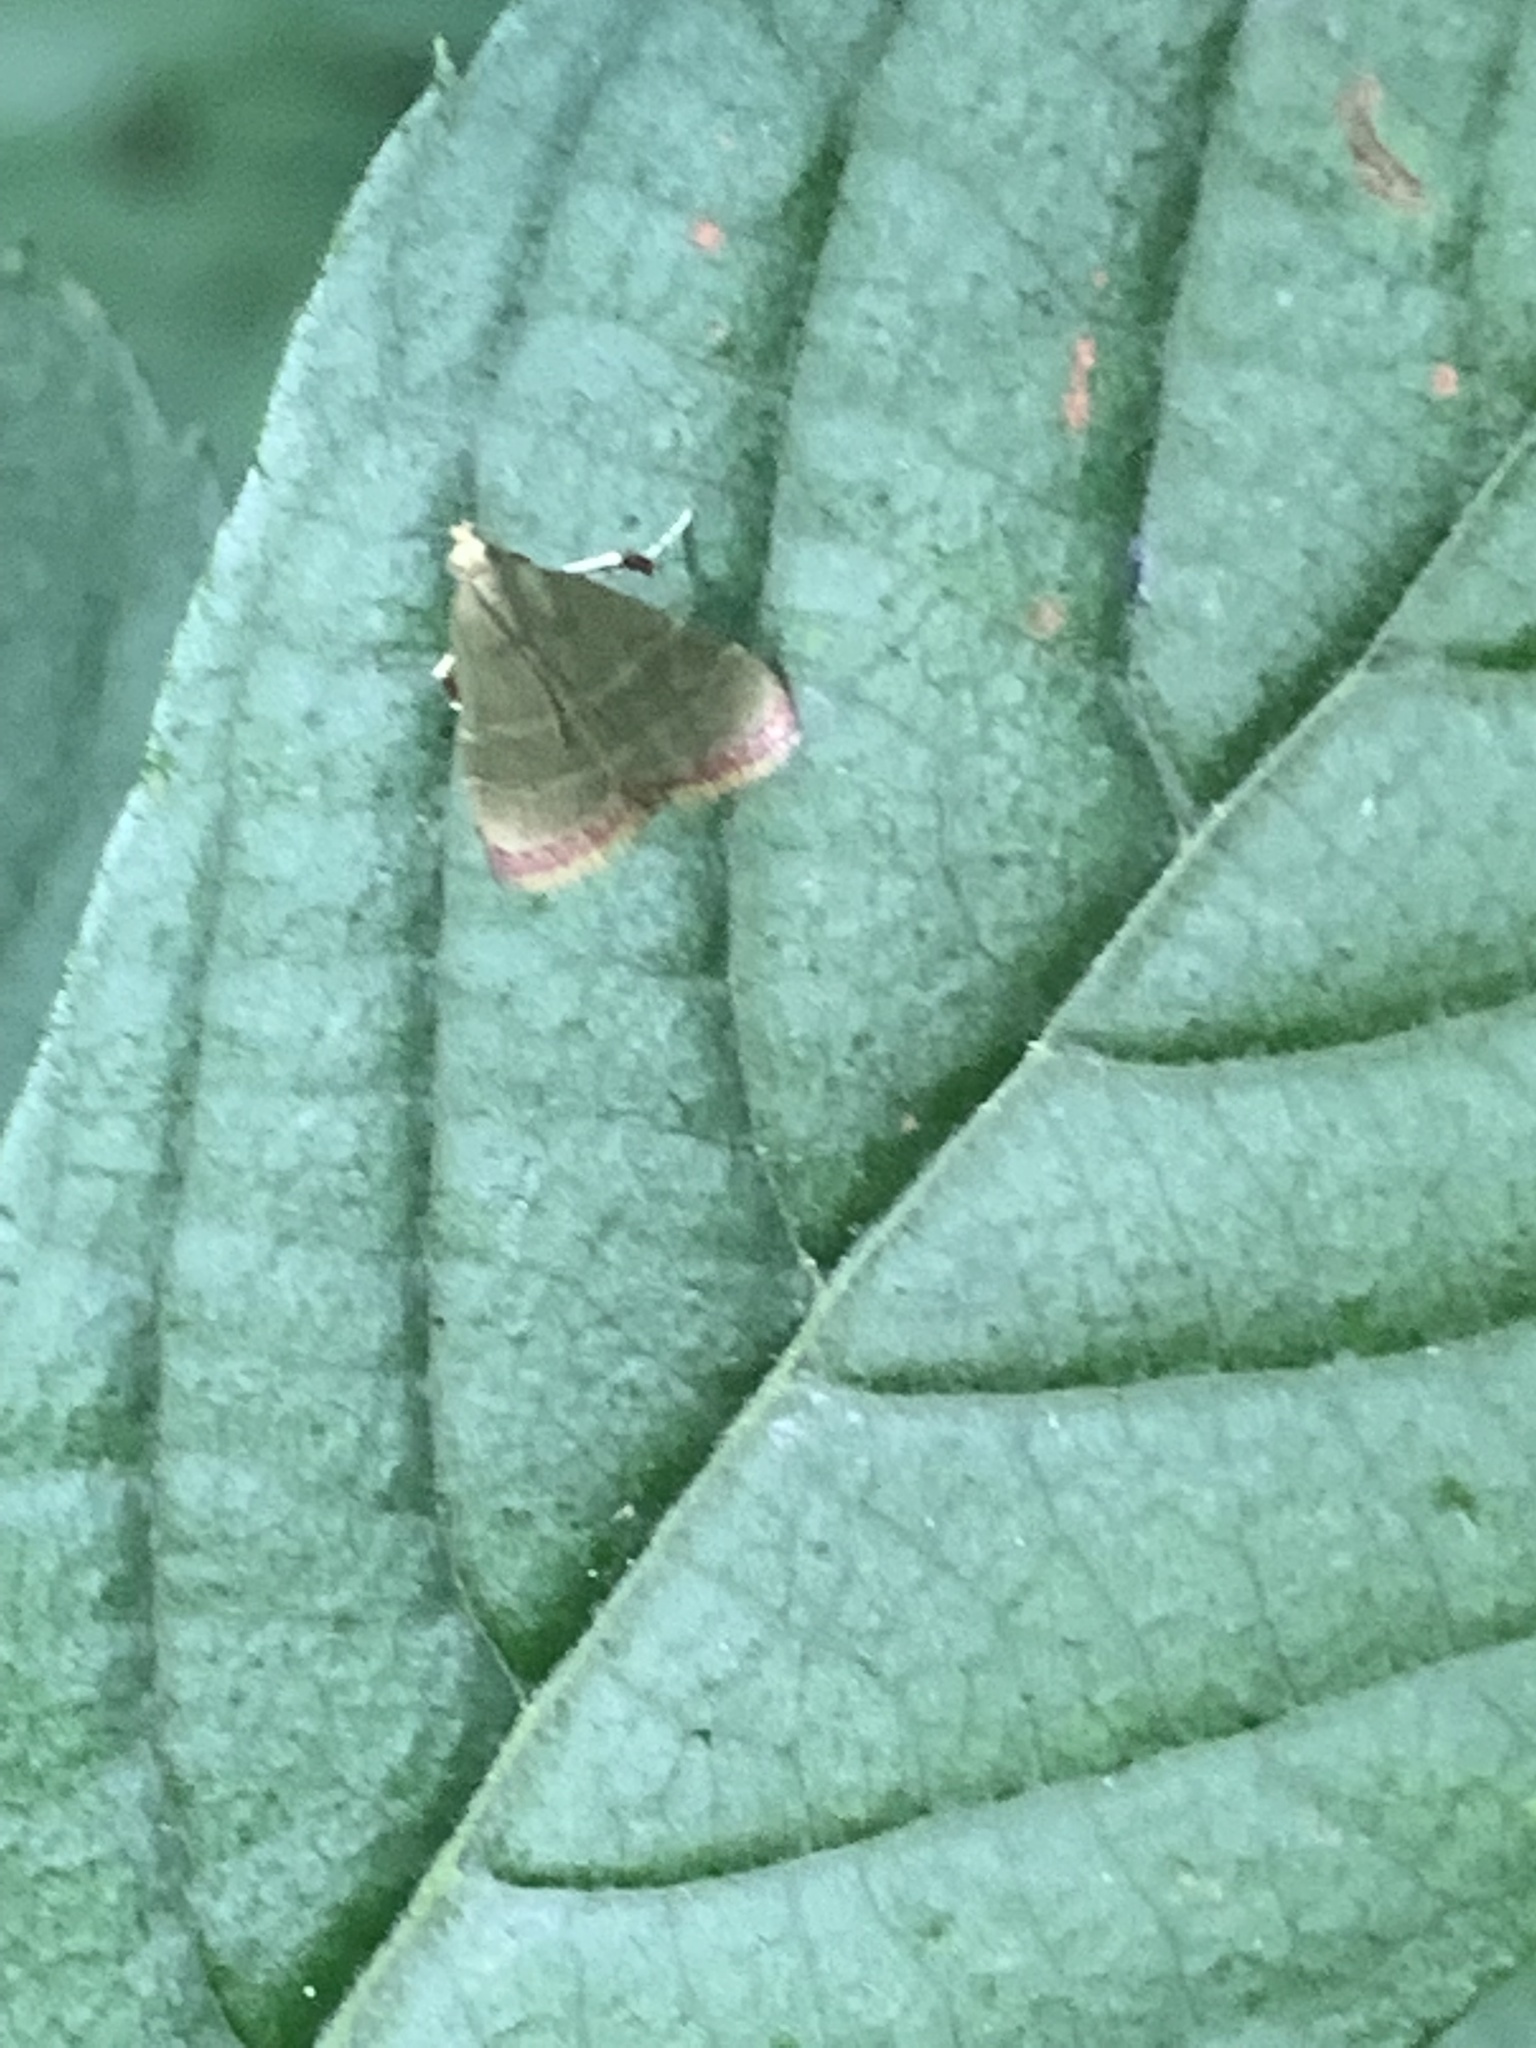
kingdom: Animalia
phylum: Arthropoda
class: Insecta
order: Lepidoptera
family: Pyralidae
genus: Arta
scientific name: Arta olivalis
